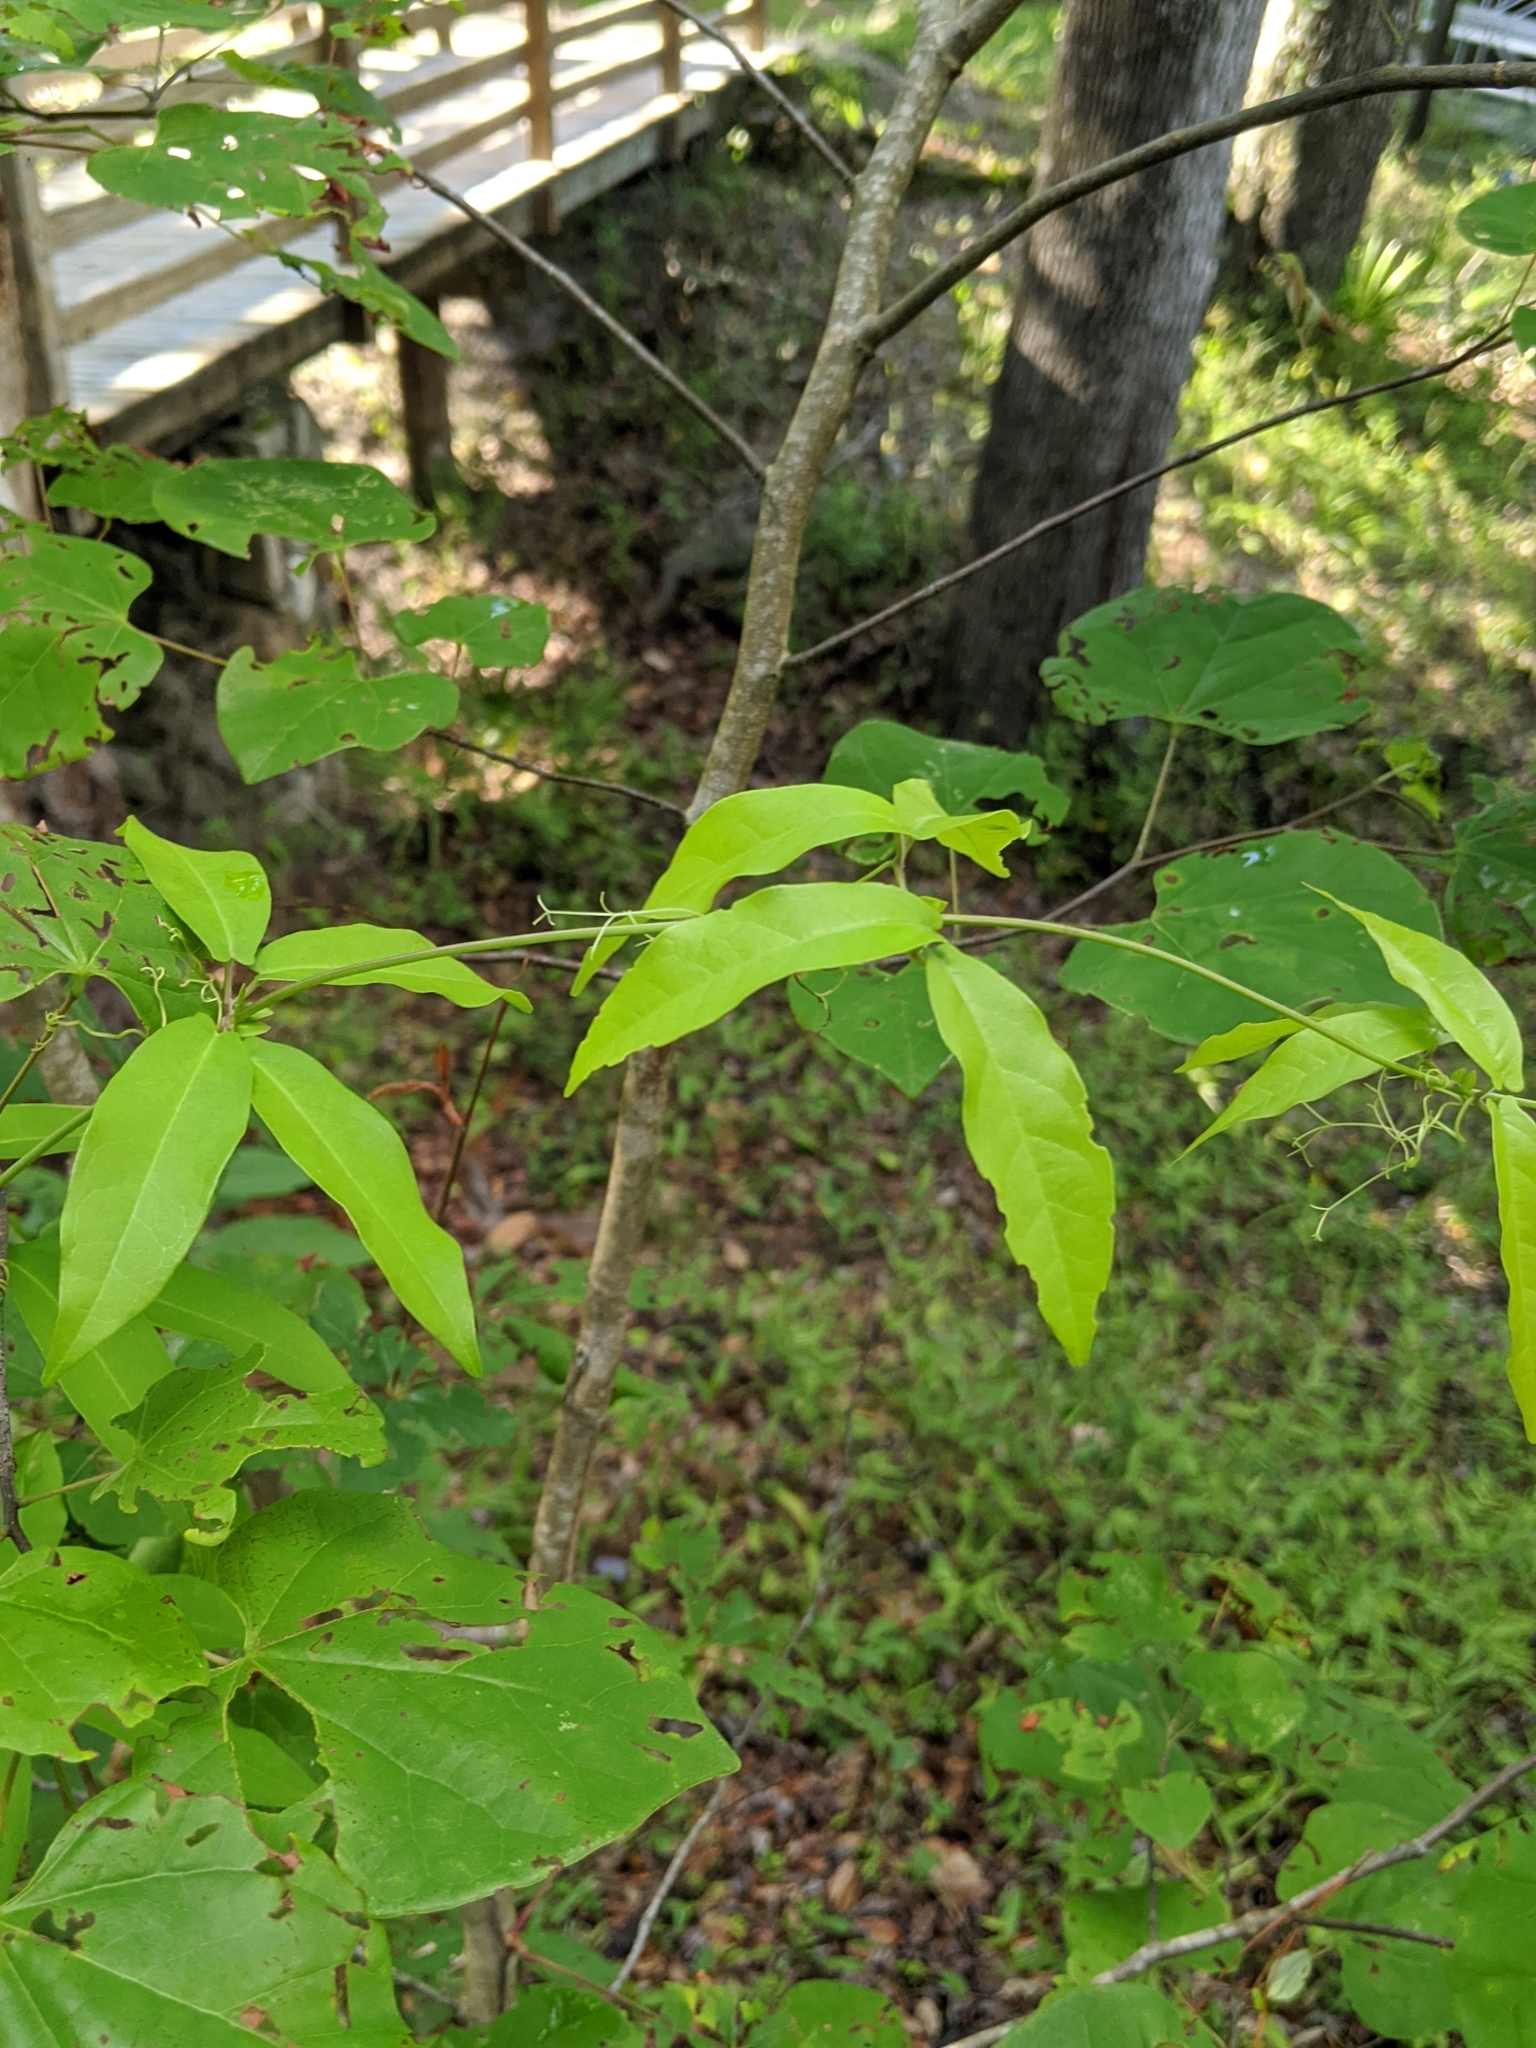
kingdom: Plantae
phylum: Tracheophyta
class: Magnoliopsida
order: Lamiales
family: Bignoniaceae
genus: Bignonia
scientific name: Bignonia capreolata
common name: Crossvine
